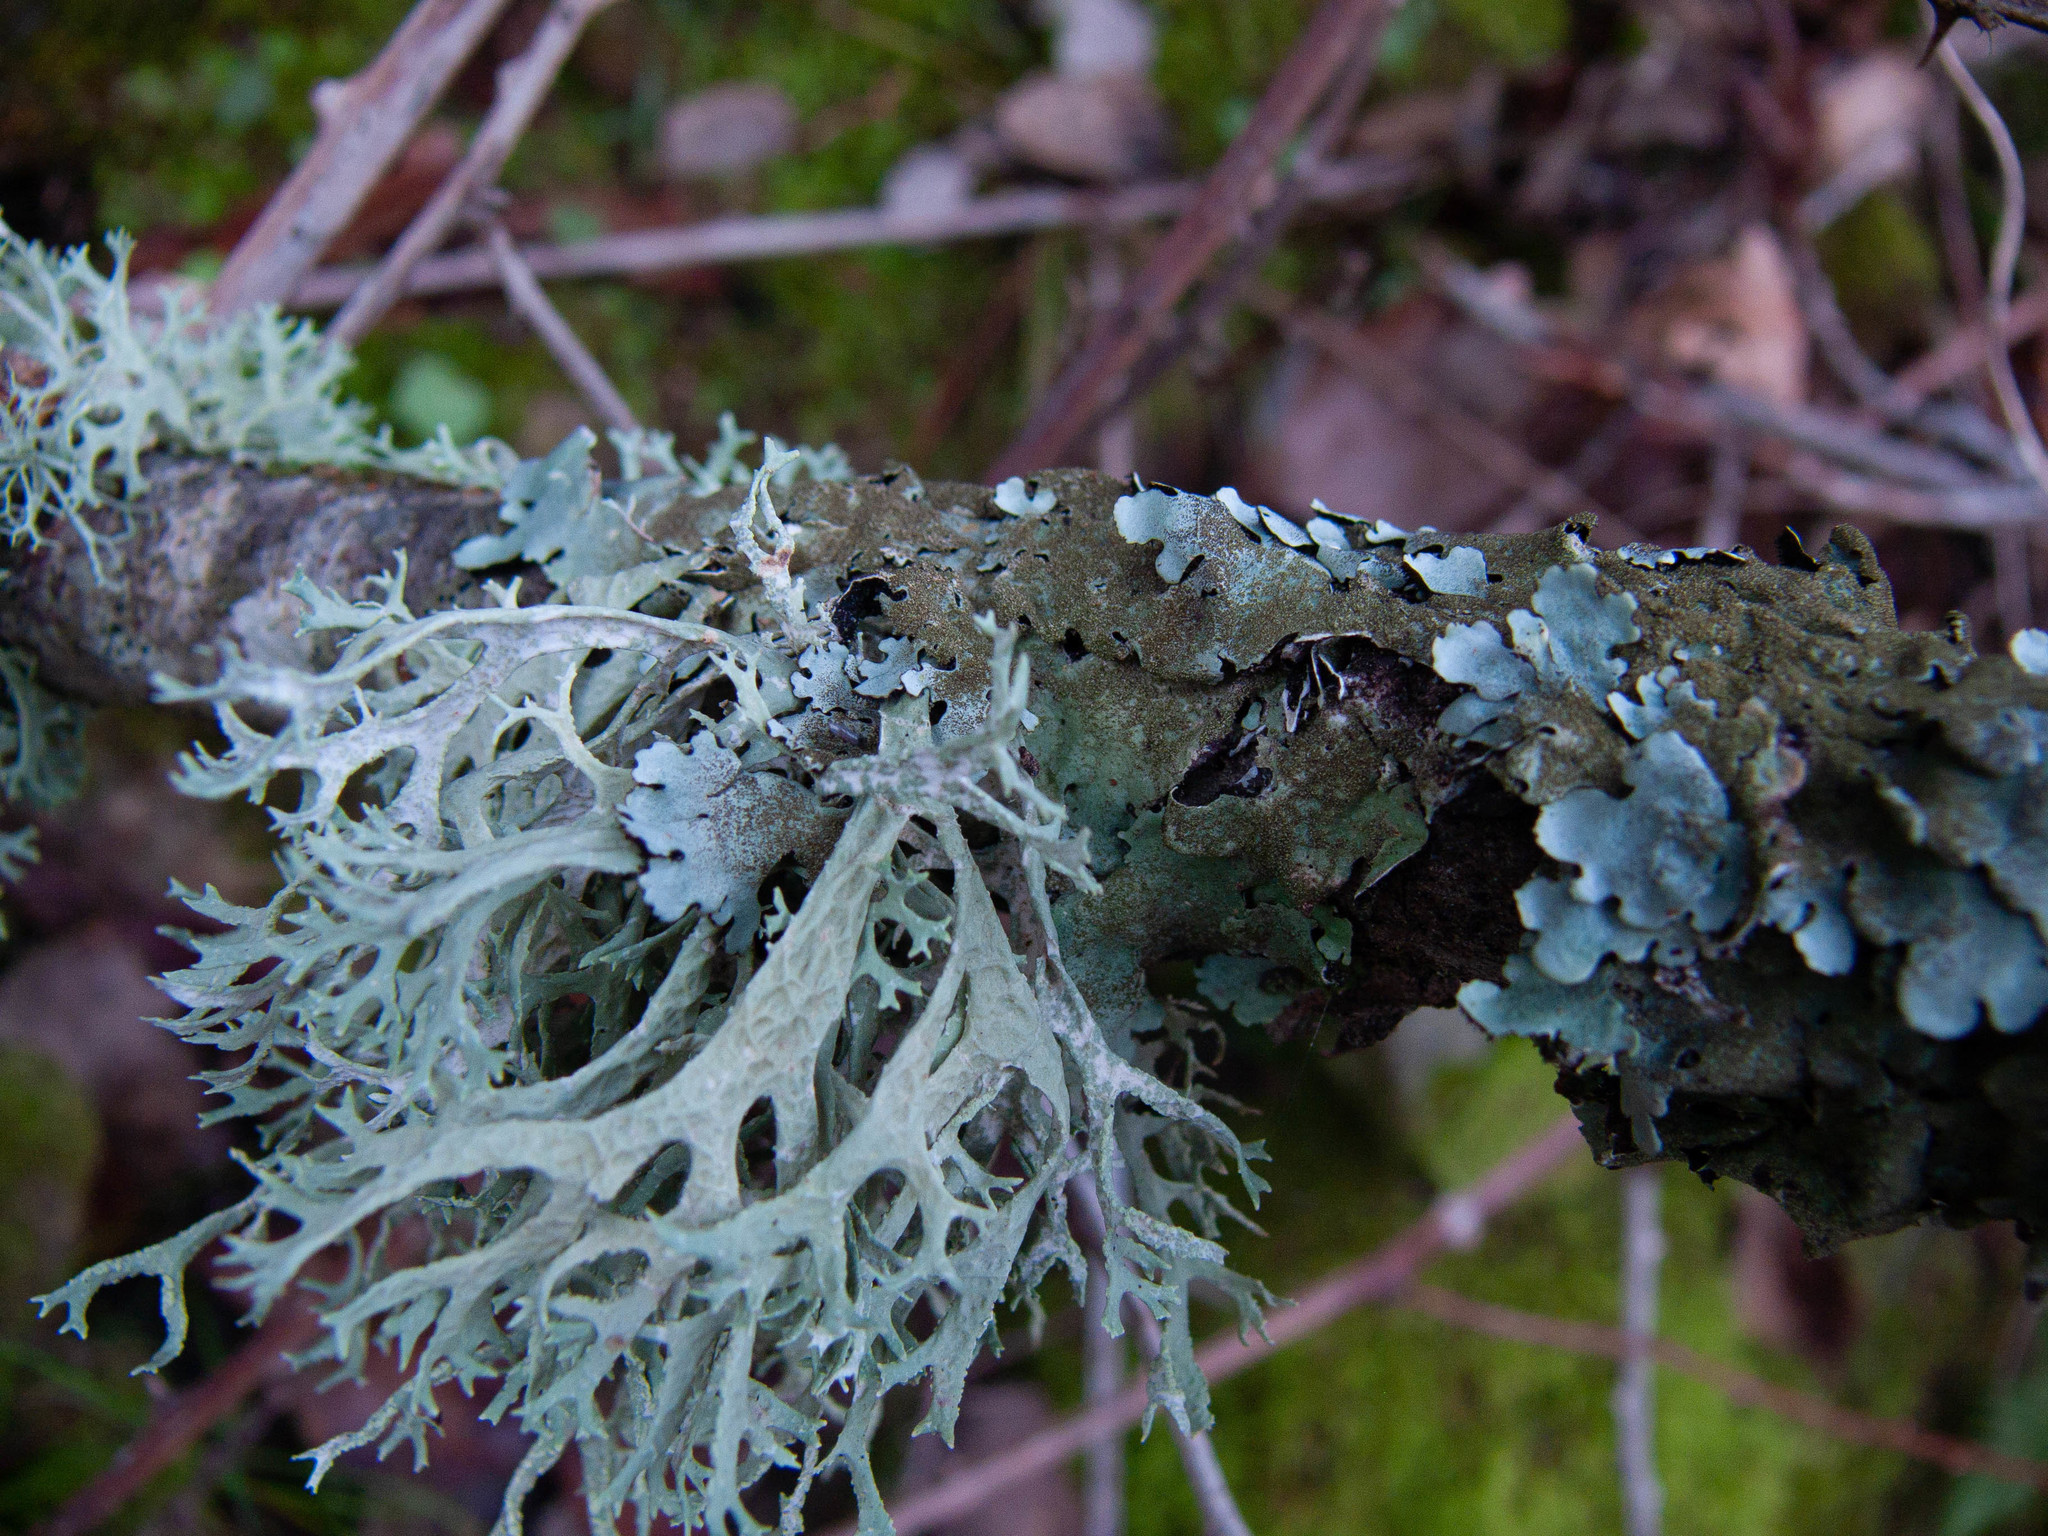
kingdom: Fungi
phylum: Ascomycota
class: Lecanoromycetes
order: Lecanorales
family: Parmeliaceae
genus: Evernia
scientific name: Evernia prunastri
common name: Oak moss
